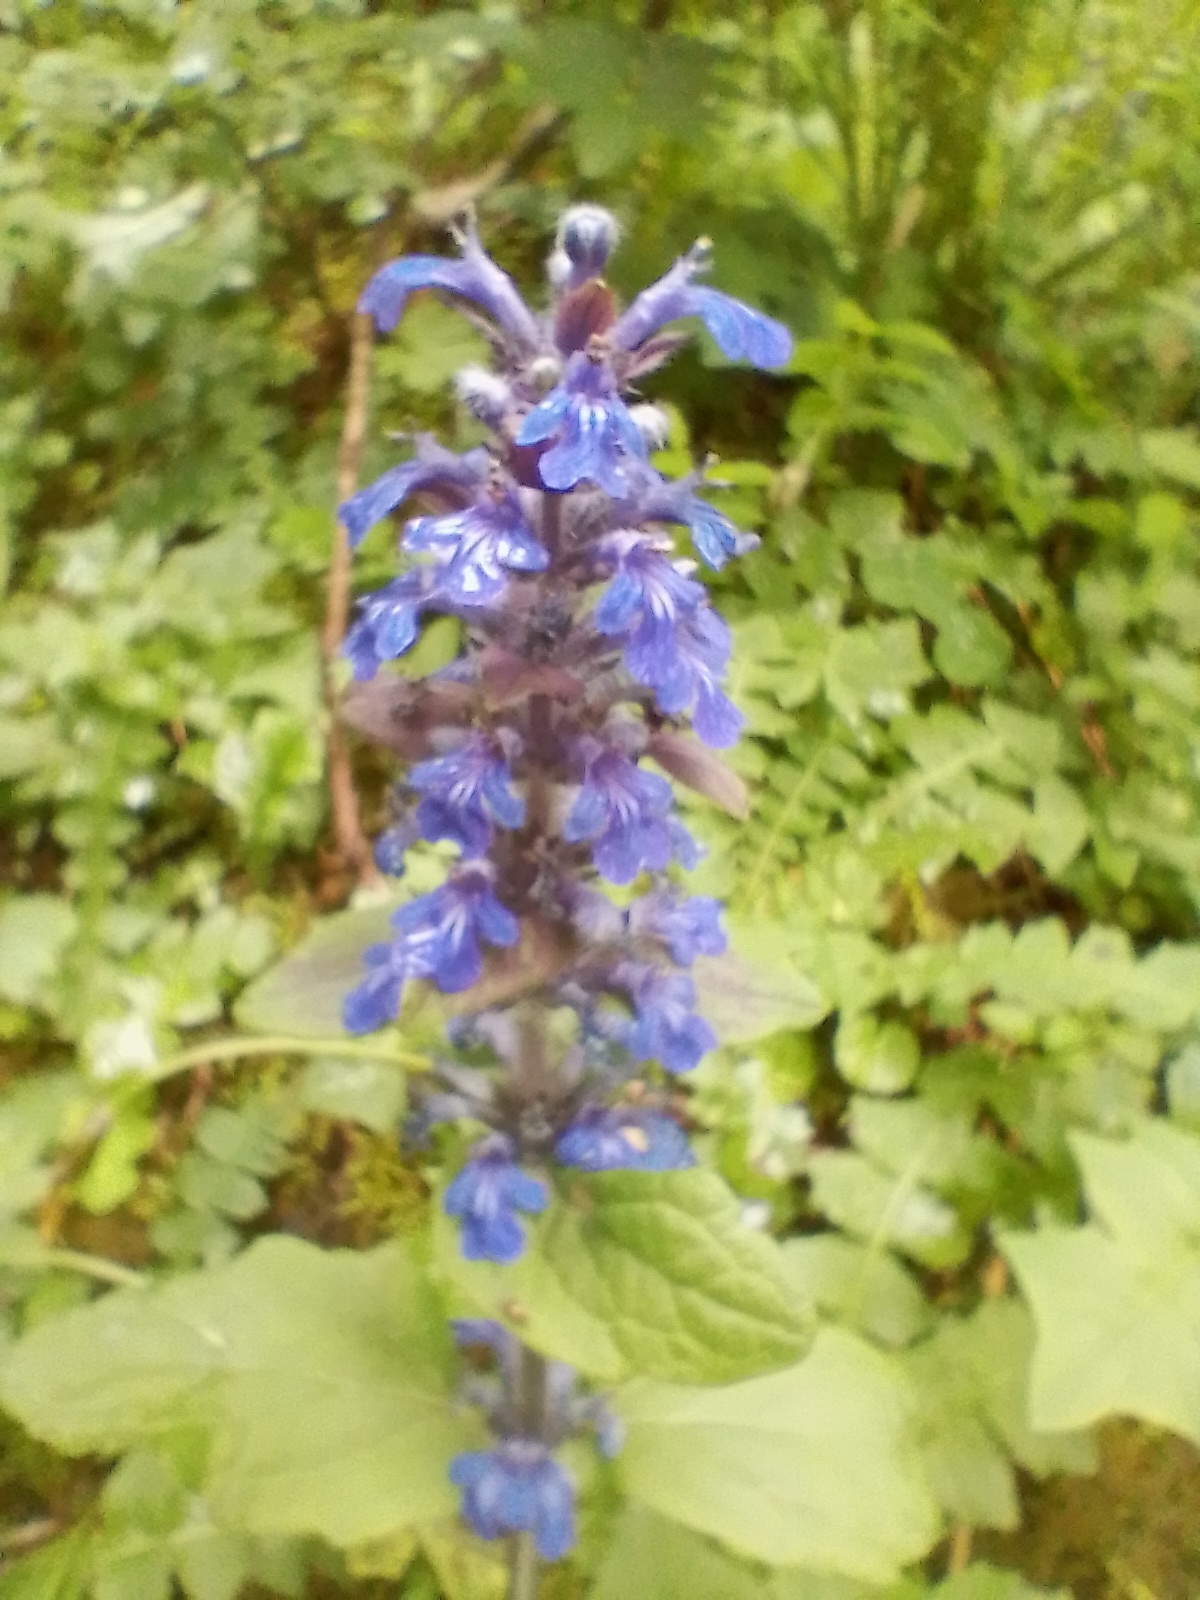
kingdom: Plantae
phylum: Tracheophyta
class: Magnoliopsida
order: Lamiales
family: Lamiaceae
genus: Ajuga
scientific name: Ajuga reptans
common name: Bugle
